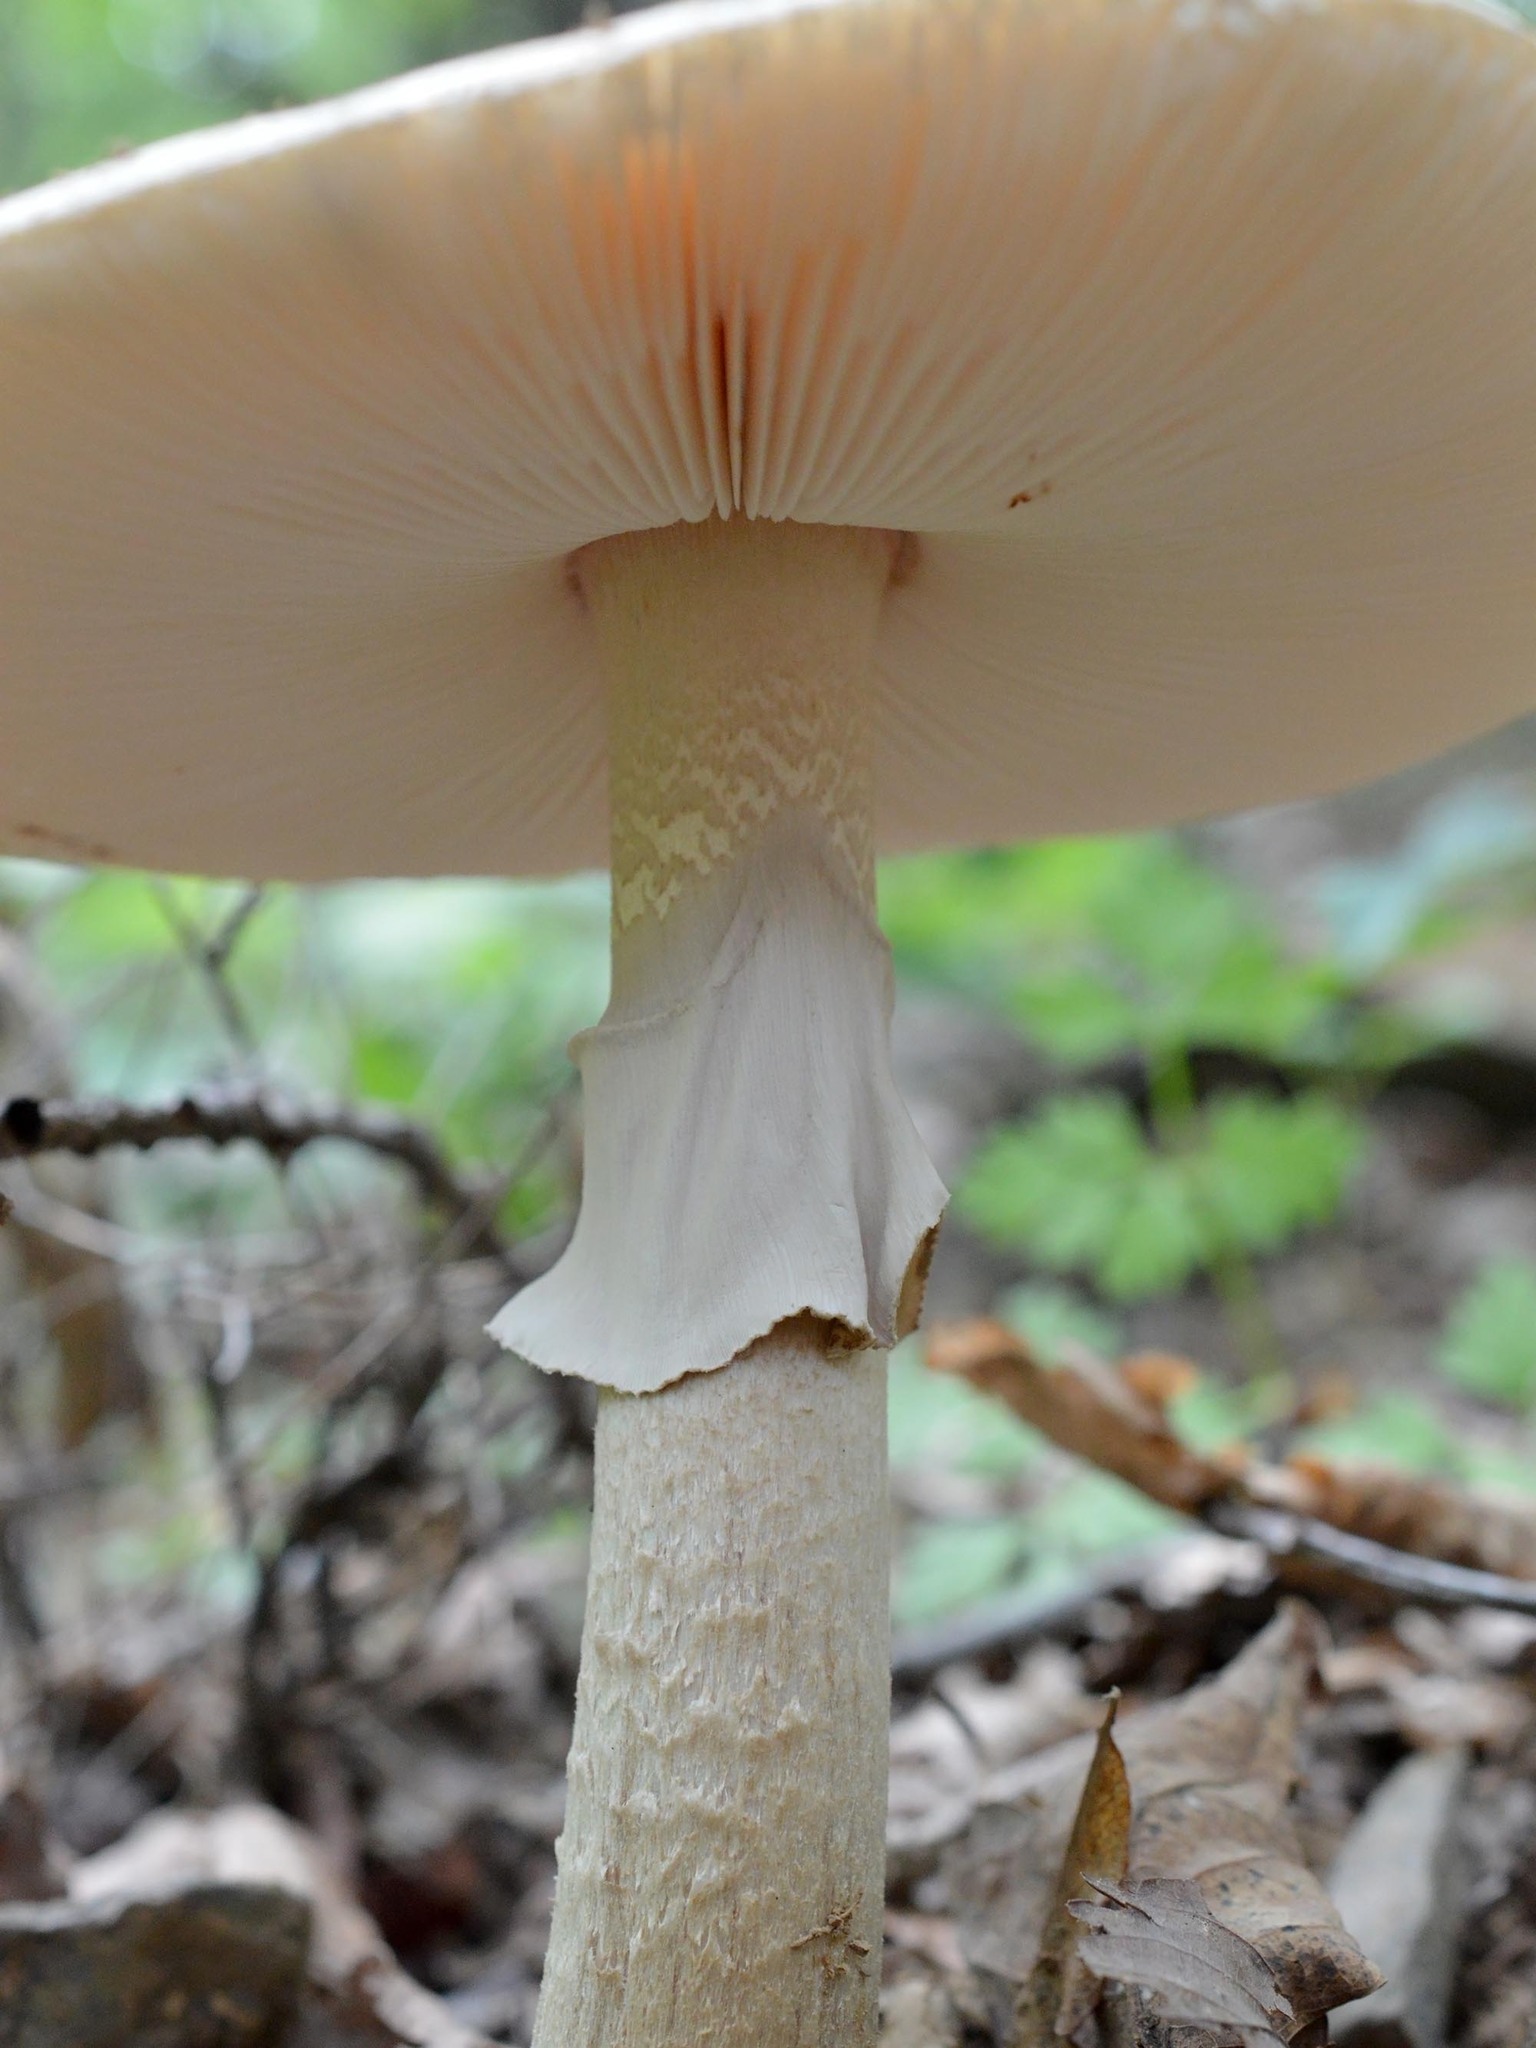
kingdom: Fungi
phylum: Basidiomycota
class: Agaricomycetes
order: Agaricales
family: Amanitaceae
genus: Amanita
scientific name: Amanita rubescens
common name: Blusher
